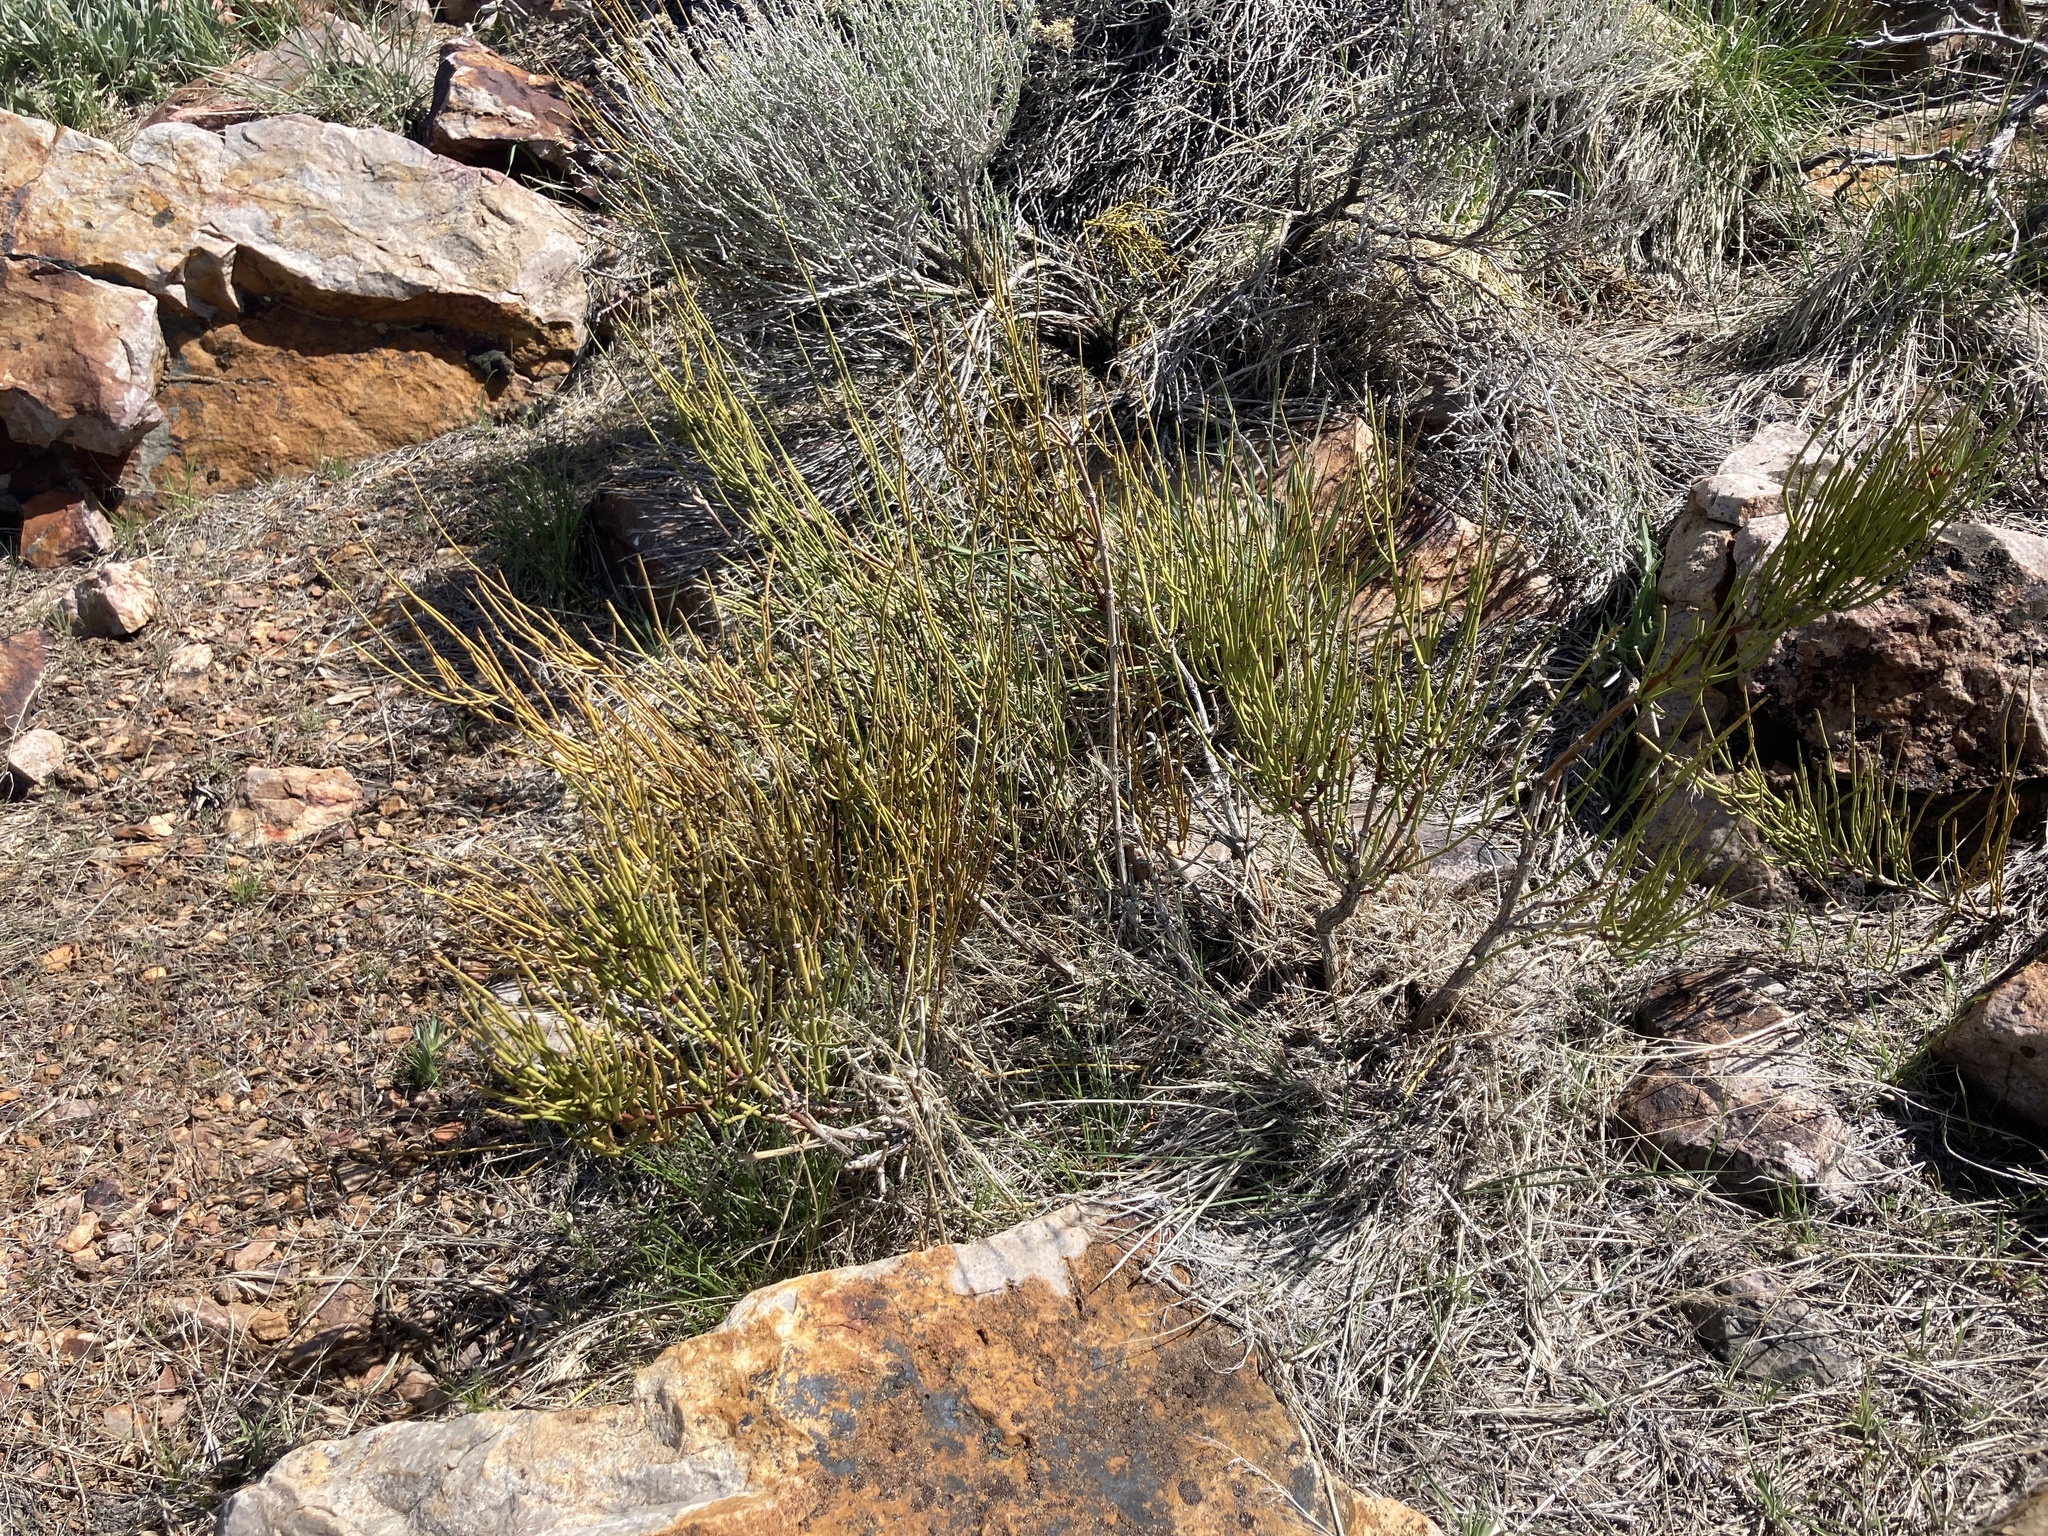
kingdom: Plantae
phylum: Tracheophyta
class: Gnetopsida
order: Ephedrales
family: Ephedraceae
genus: Ephedra
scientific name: Ephedra viridis
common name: Green ephedra
